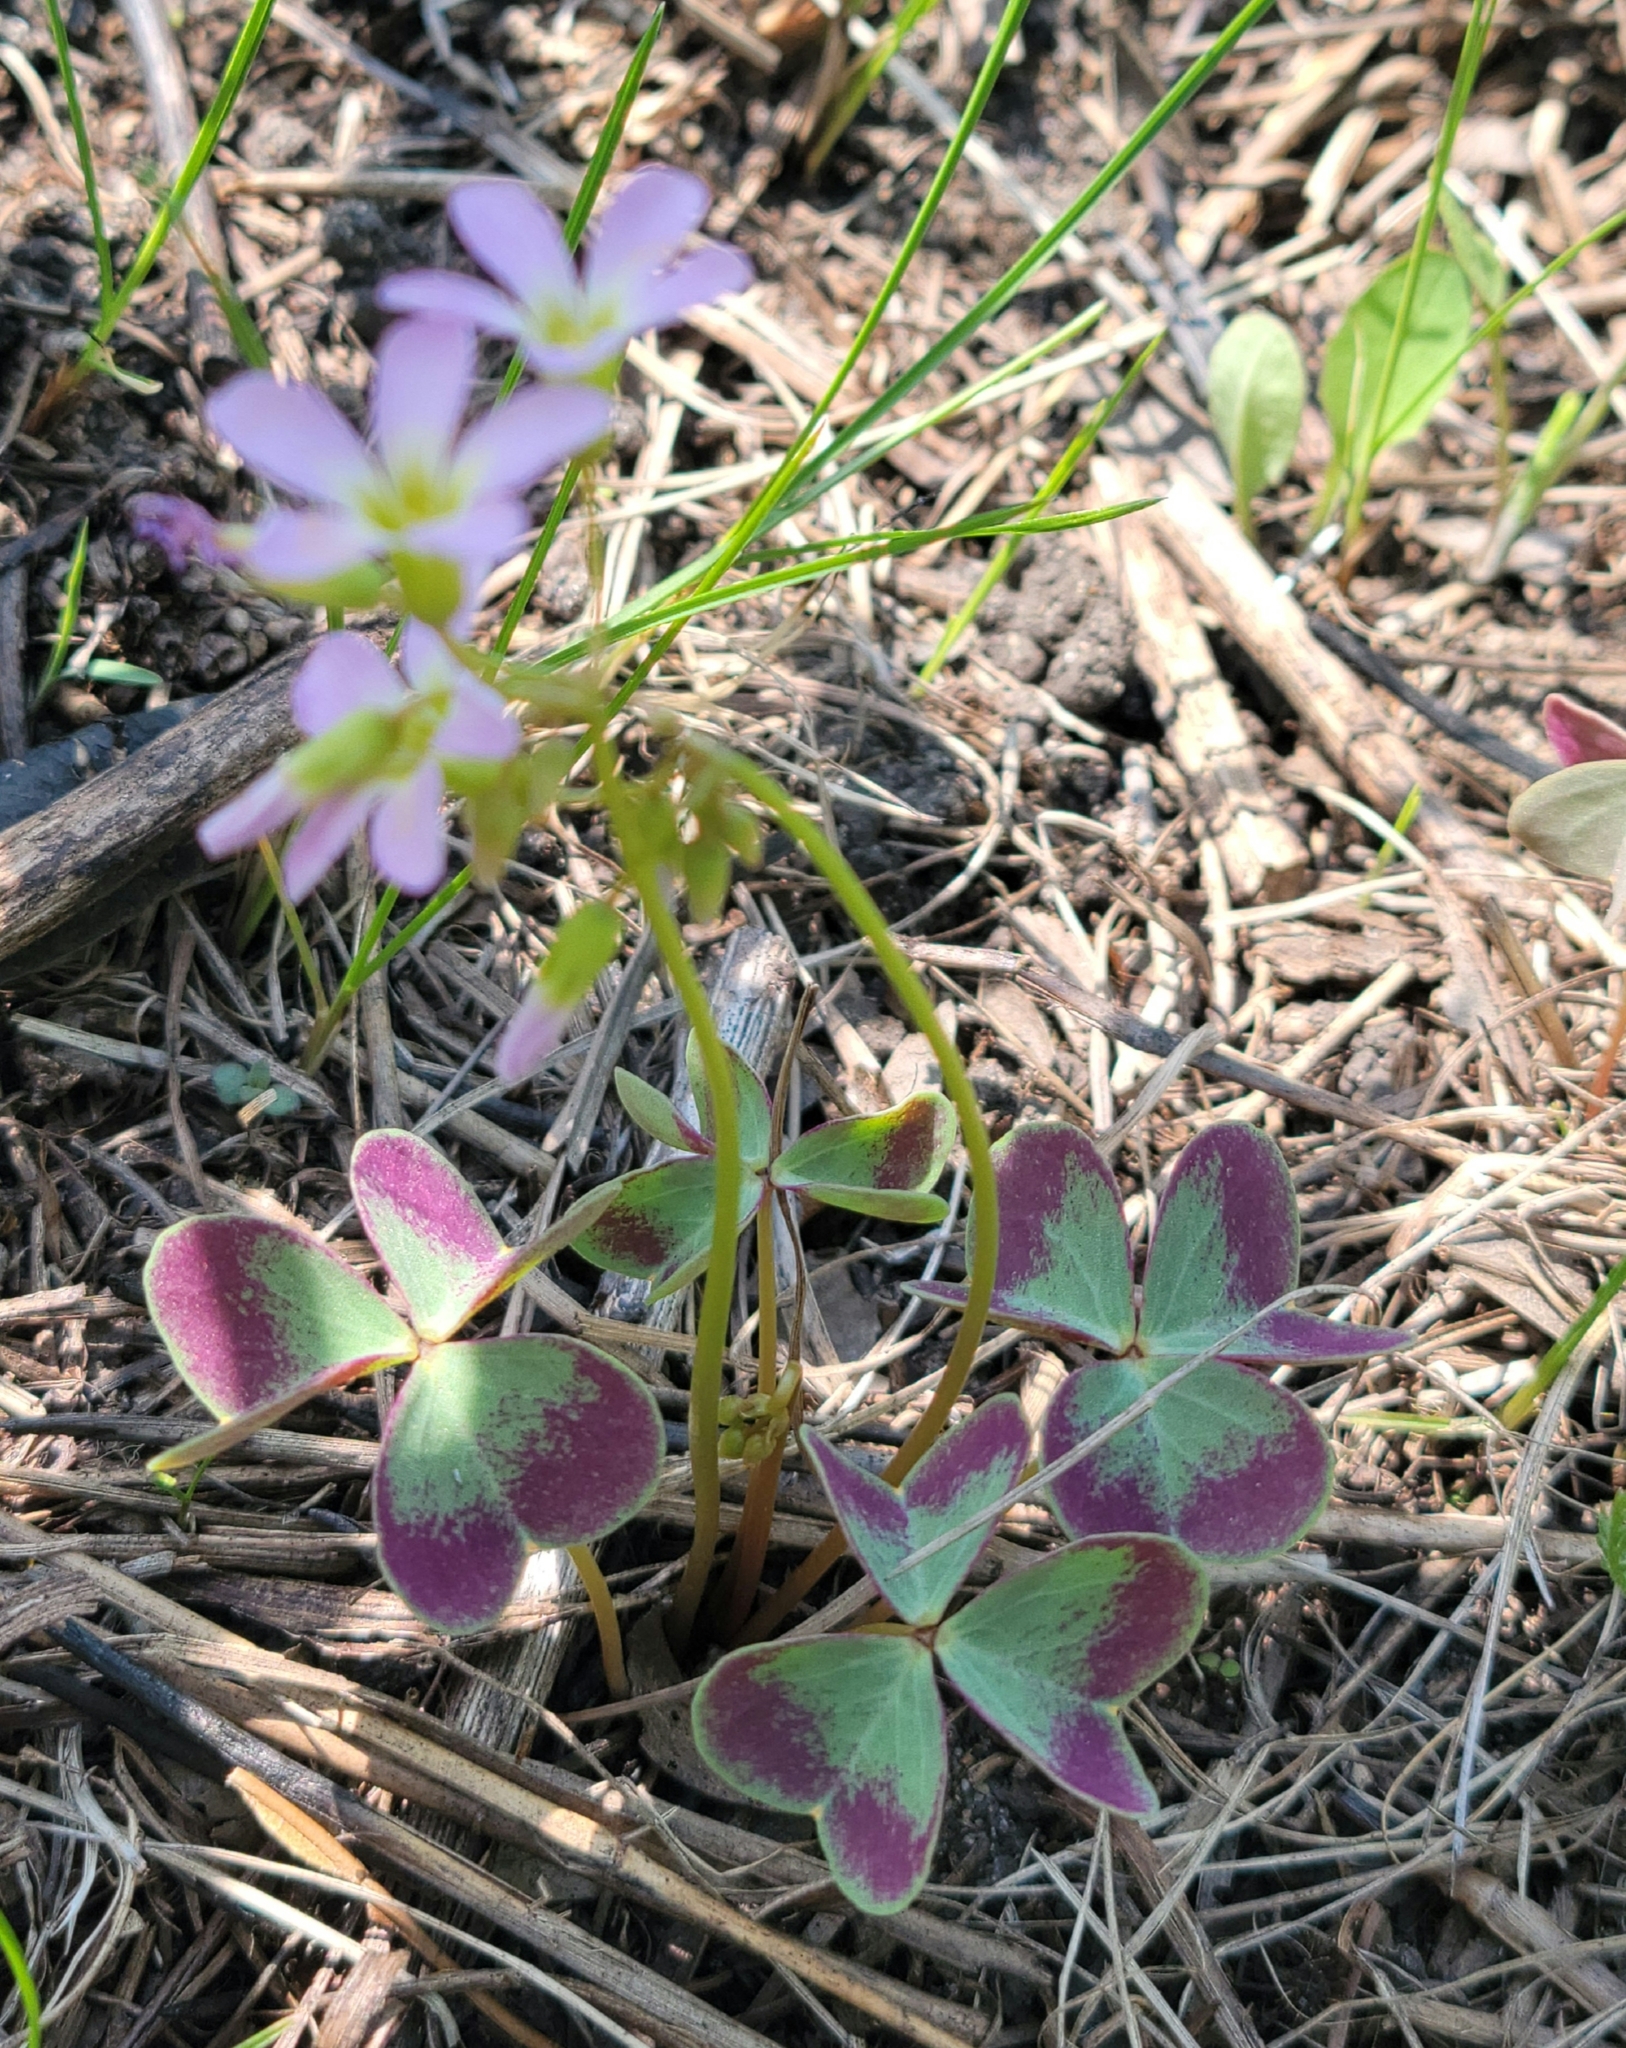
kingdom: Plantae
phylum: Tracheophyta
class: Magnoliopsida
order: Oxalidales
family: Oxalidaceae
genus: Oxalis
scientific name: Oxalis violacea
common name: Violet wood-sorrel
